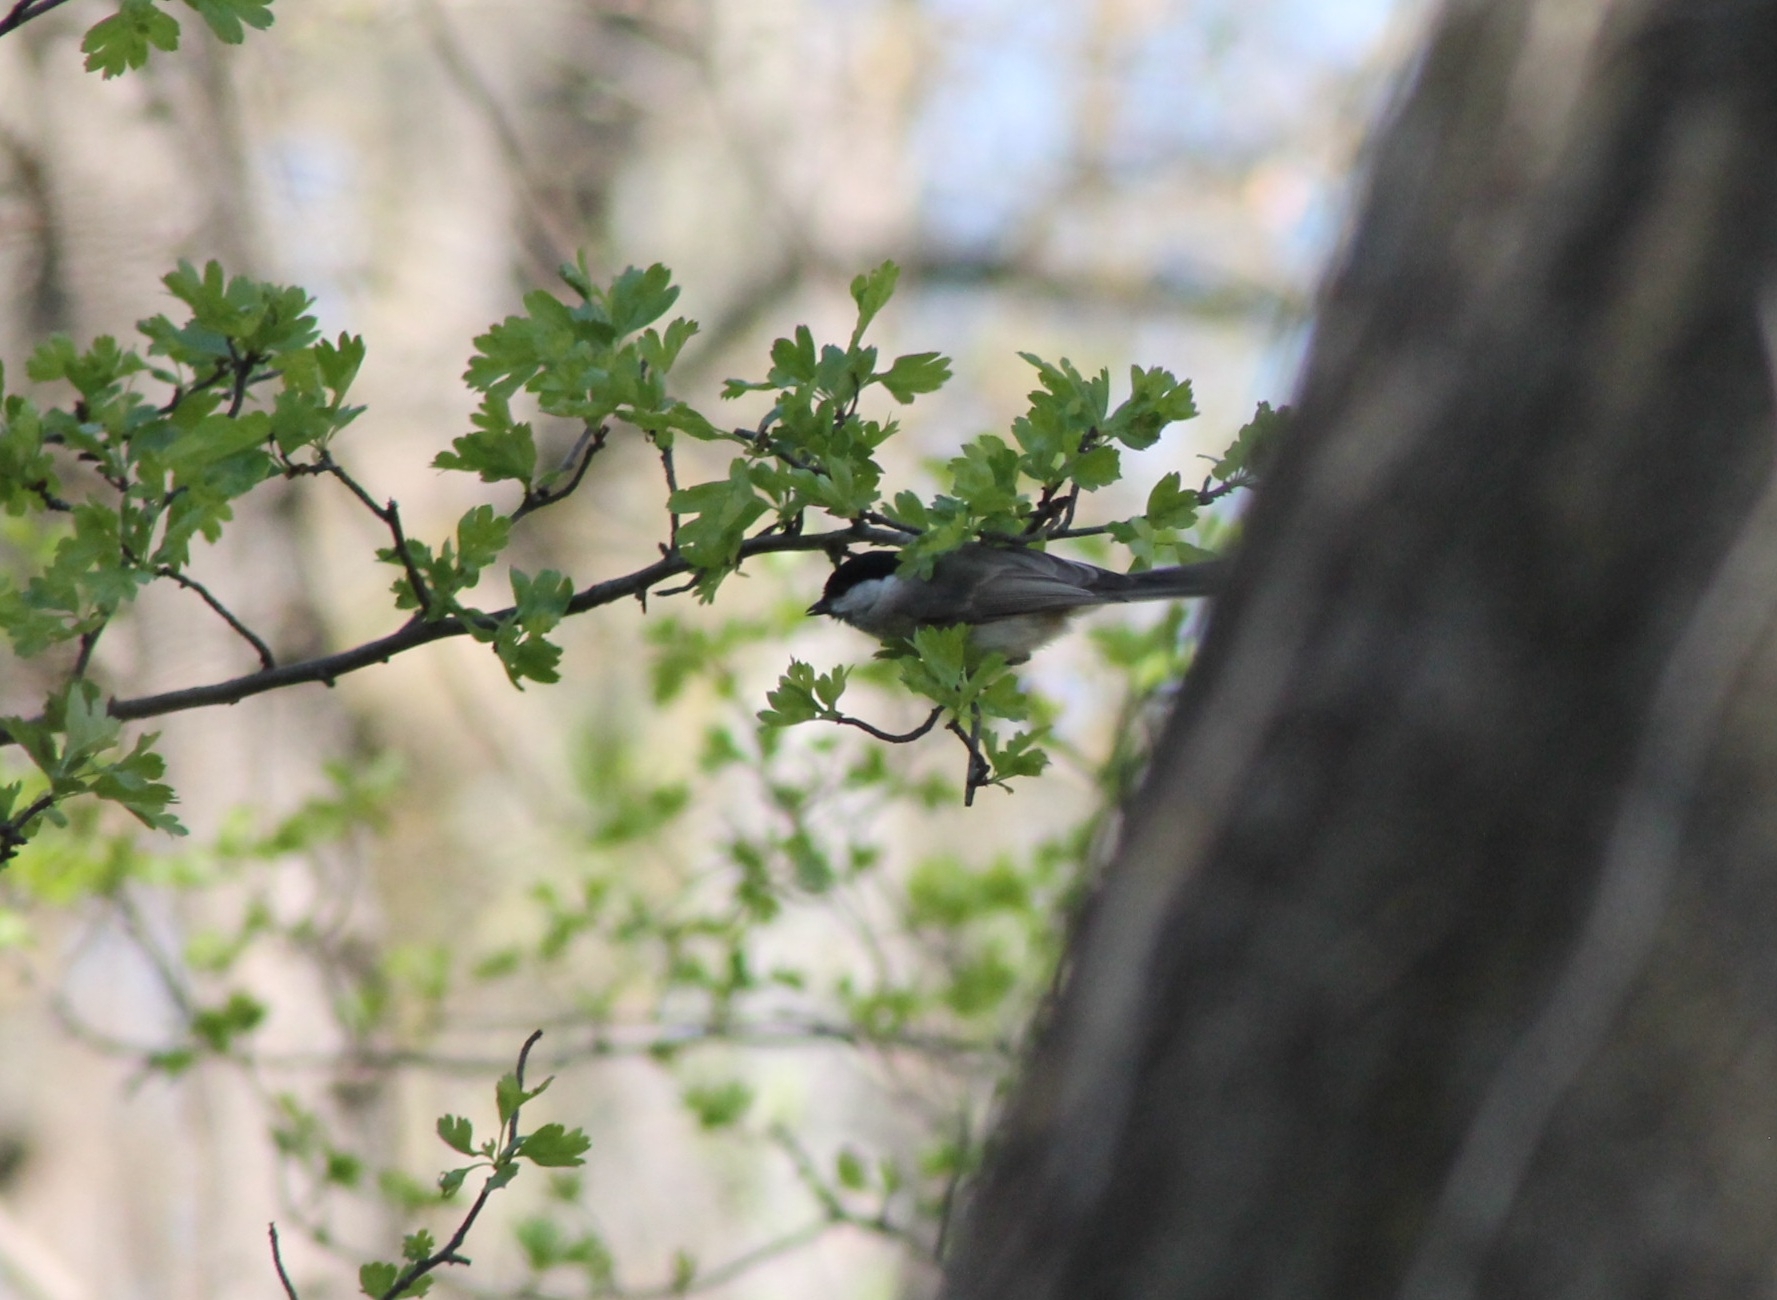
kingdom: Animalia
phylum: Chordata
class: Aves
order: Passeriformes
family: Paridae
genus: Poecile
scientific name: Poecile palustris
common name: Marsh tit
